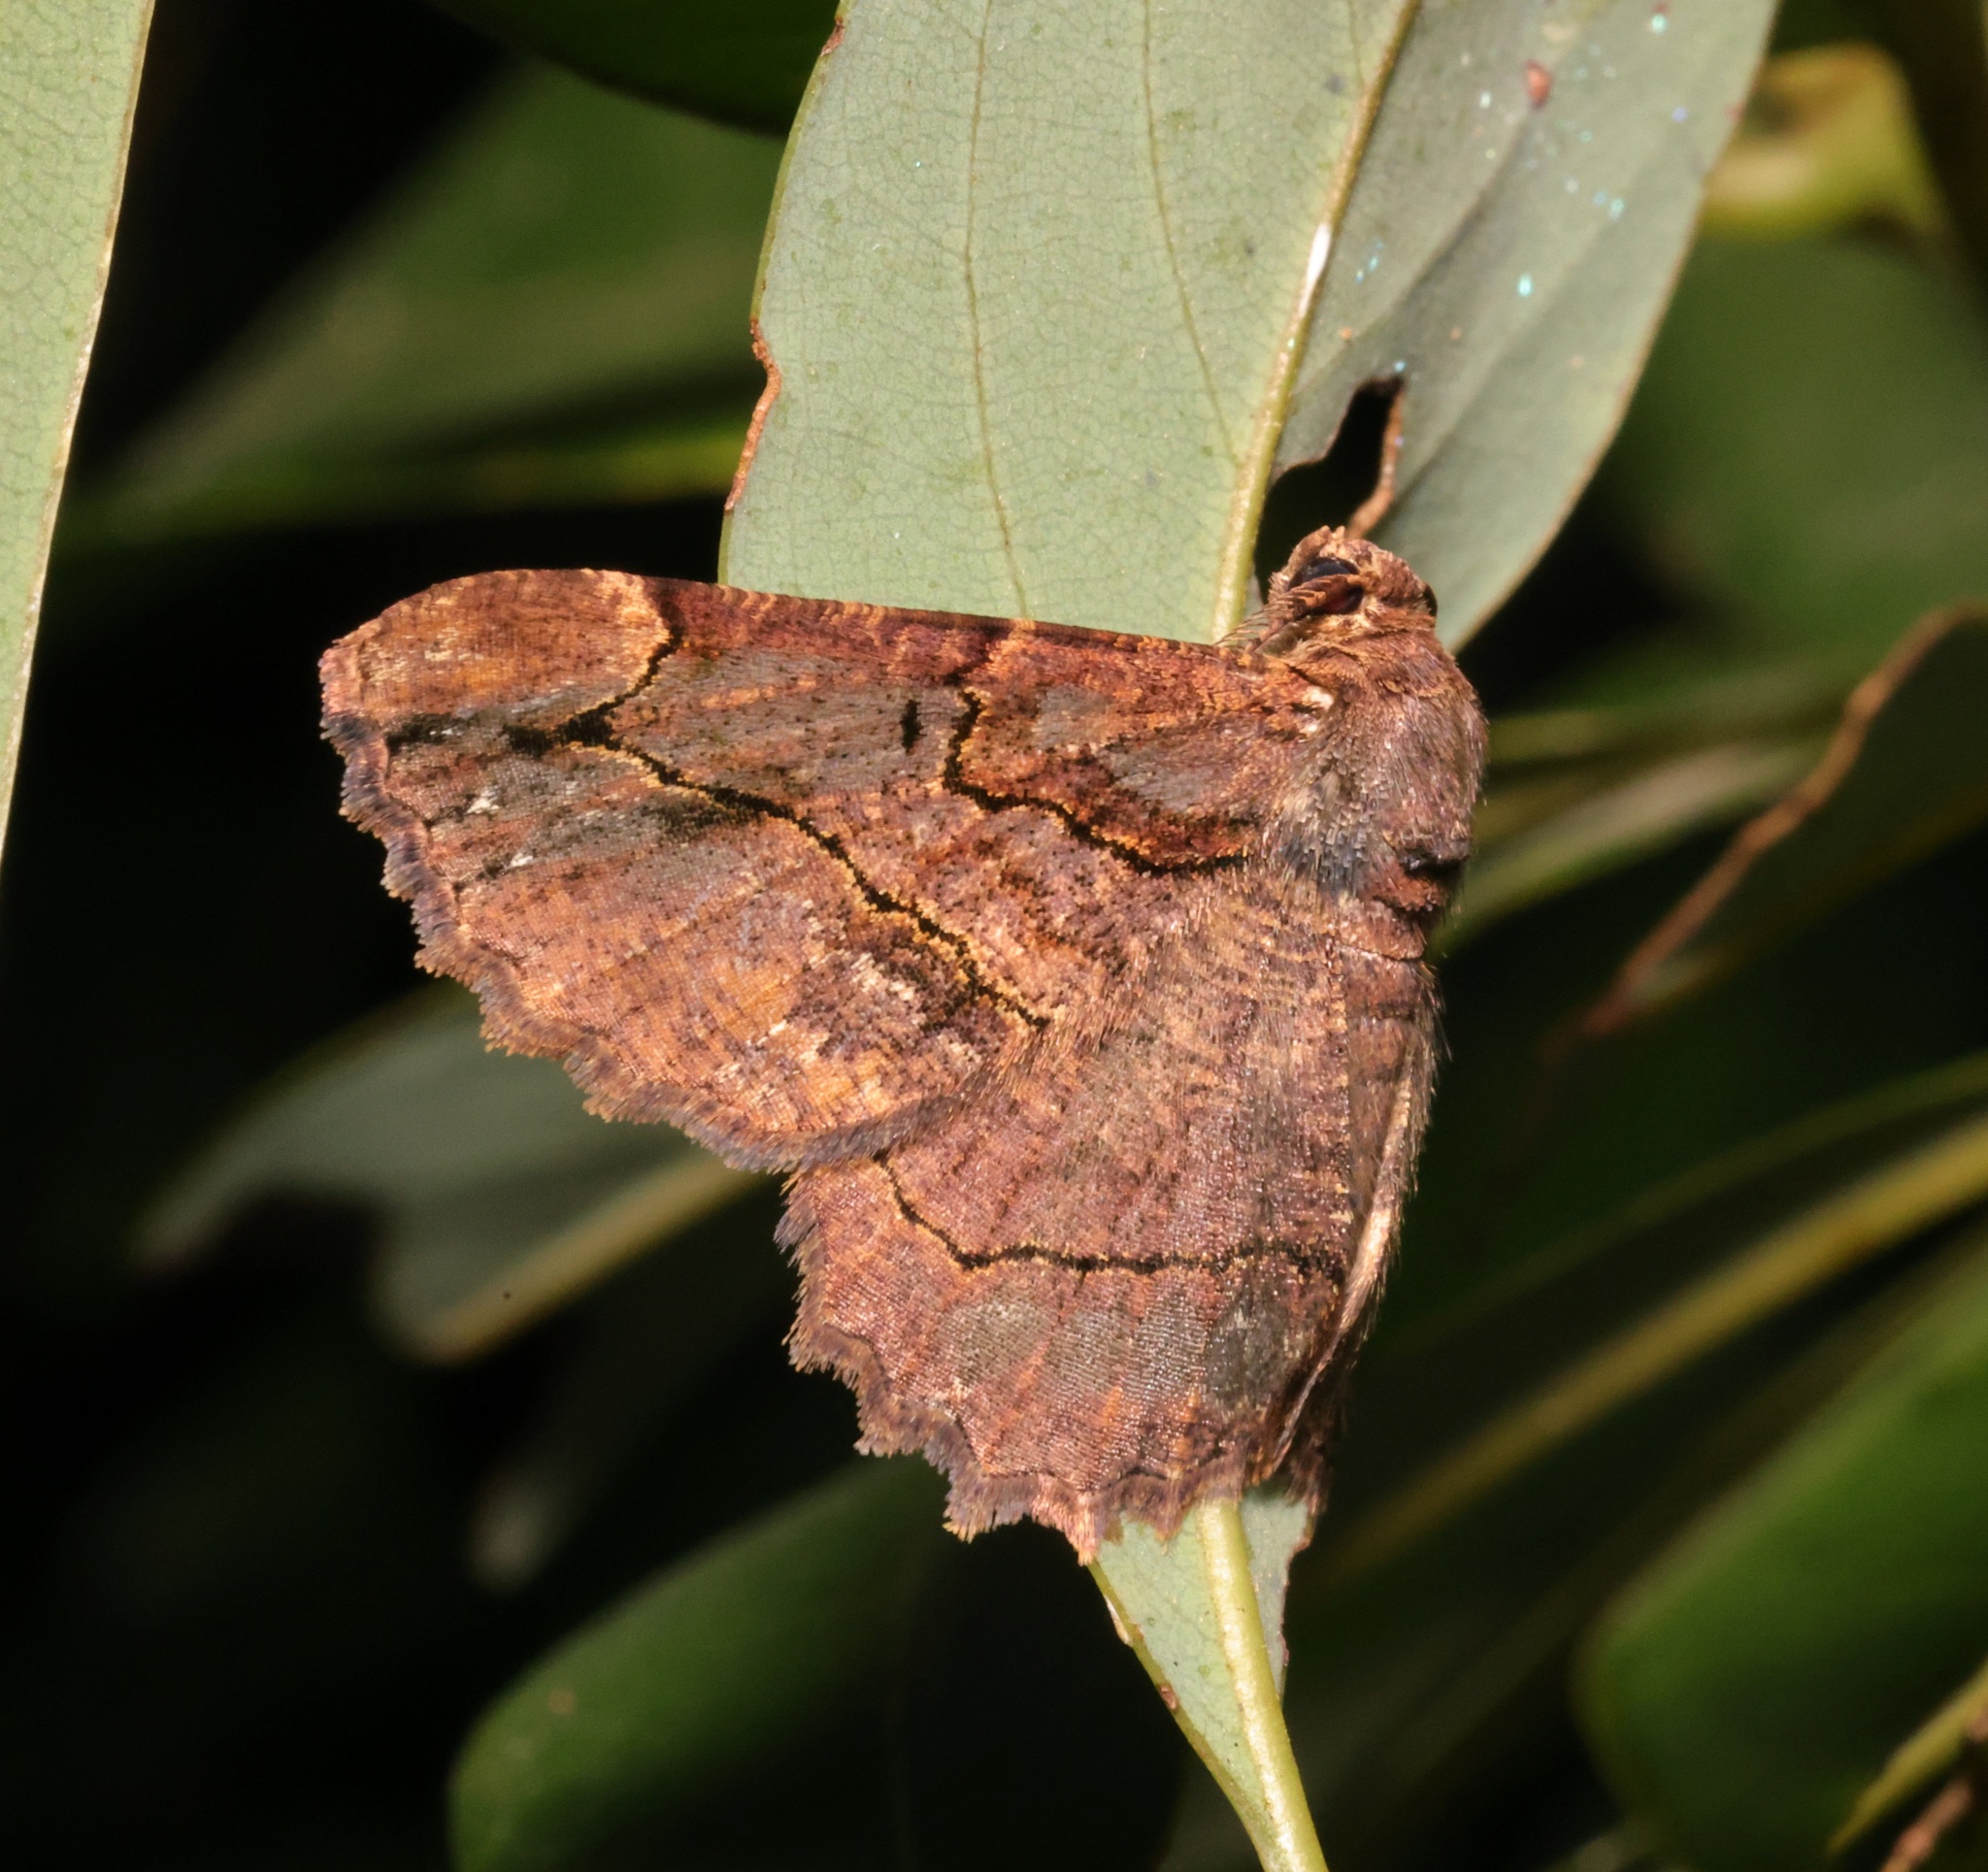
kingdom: Animalia
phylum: Arthropoda
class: Insecta
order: Lepidoptera
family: Geometridae
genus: Dasyboarmia
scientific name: Dasyboarmia subpilosa
